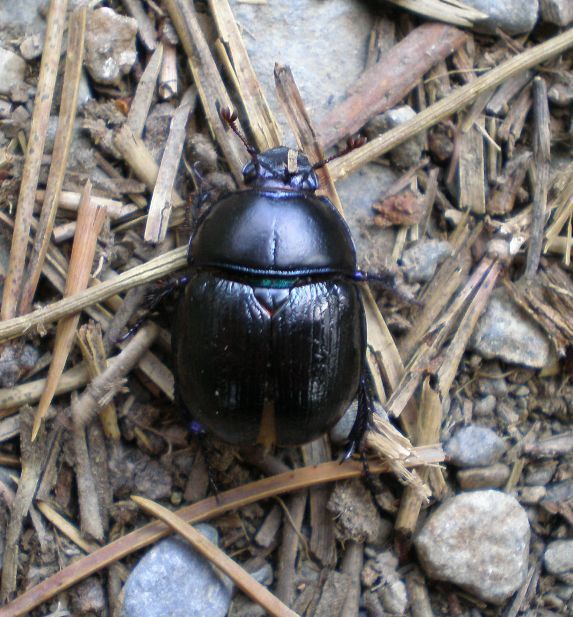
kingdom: Animalia
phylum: Arthropoda
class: Insecta
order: Coleoptera
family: Geotrupidae
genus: Anoplotrupes
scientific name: Anoplotrupes stercorosus
